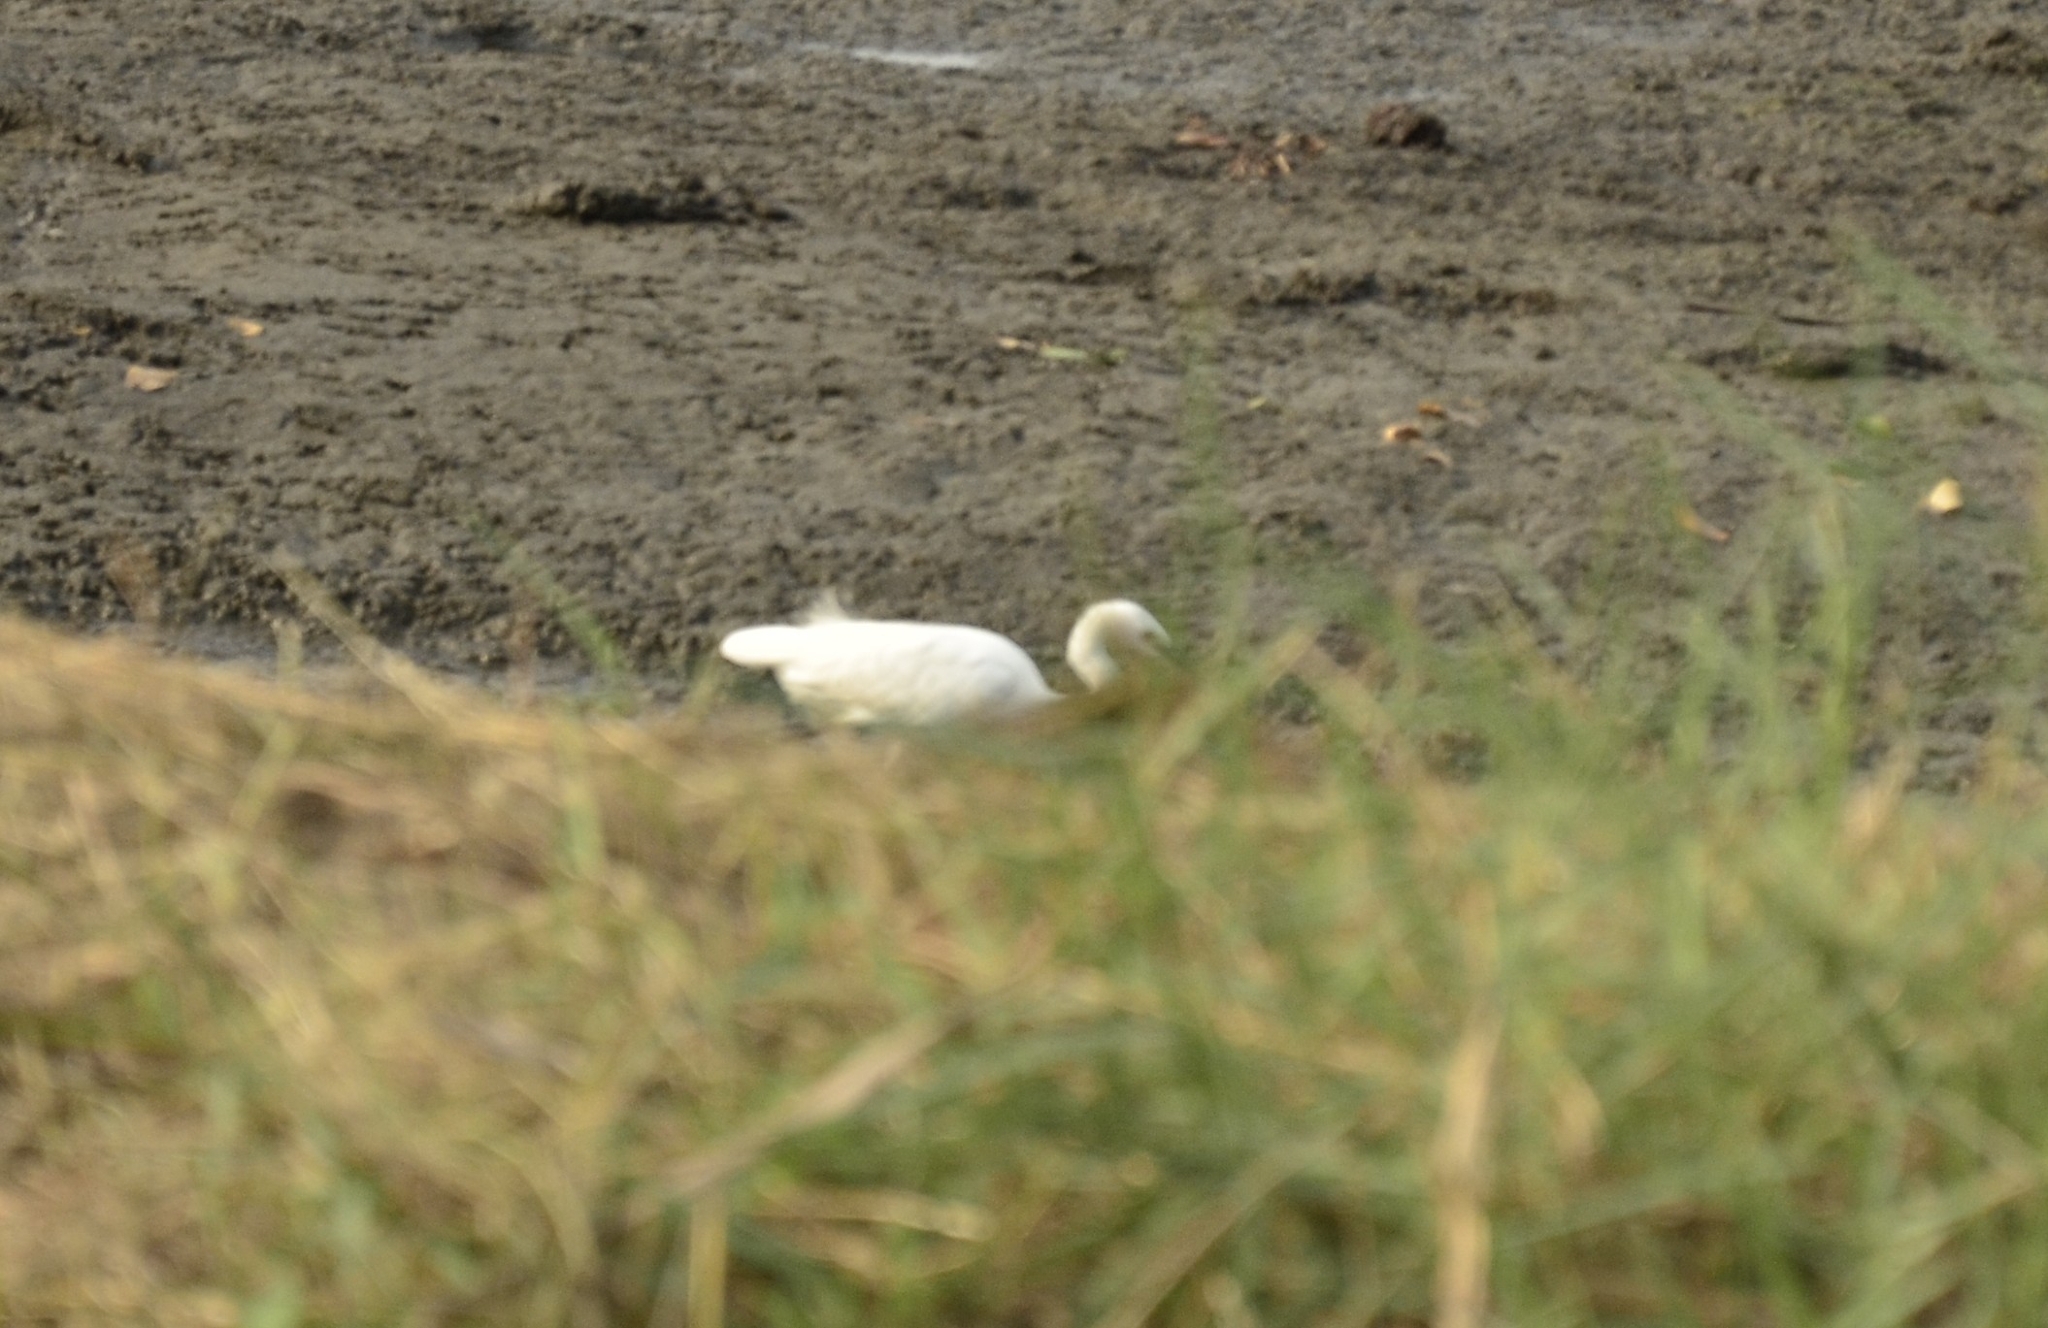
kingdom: Animalia
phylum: Chordata
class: Aves
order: Pelecaniformes
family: Ardeidae
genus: Egretta
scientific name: Egretta garzetta
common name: Little egret
